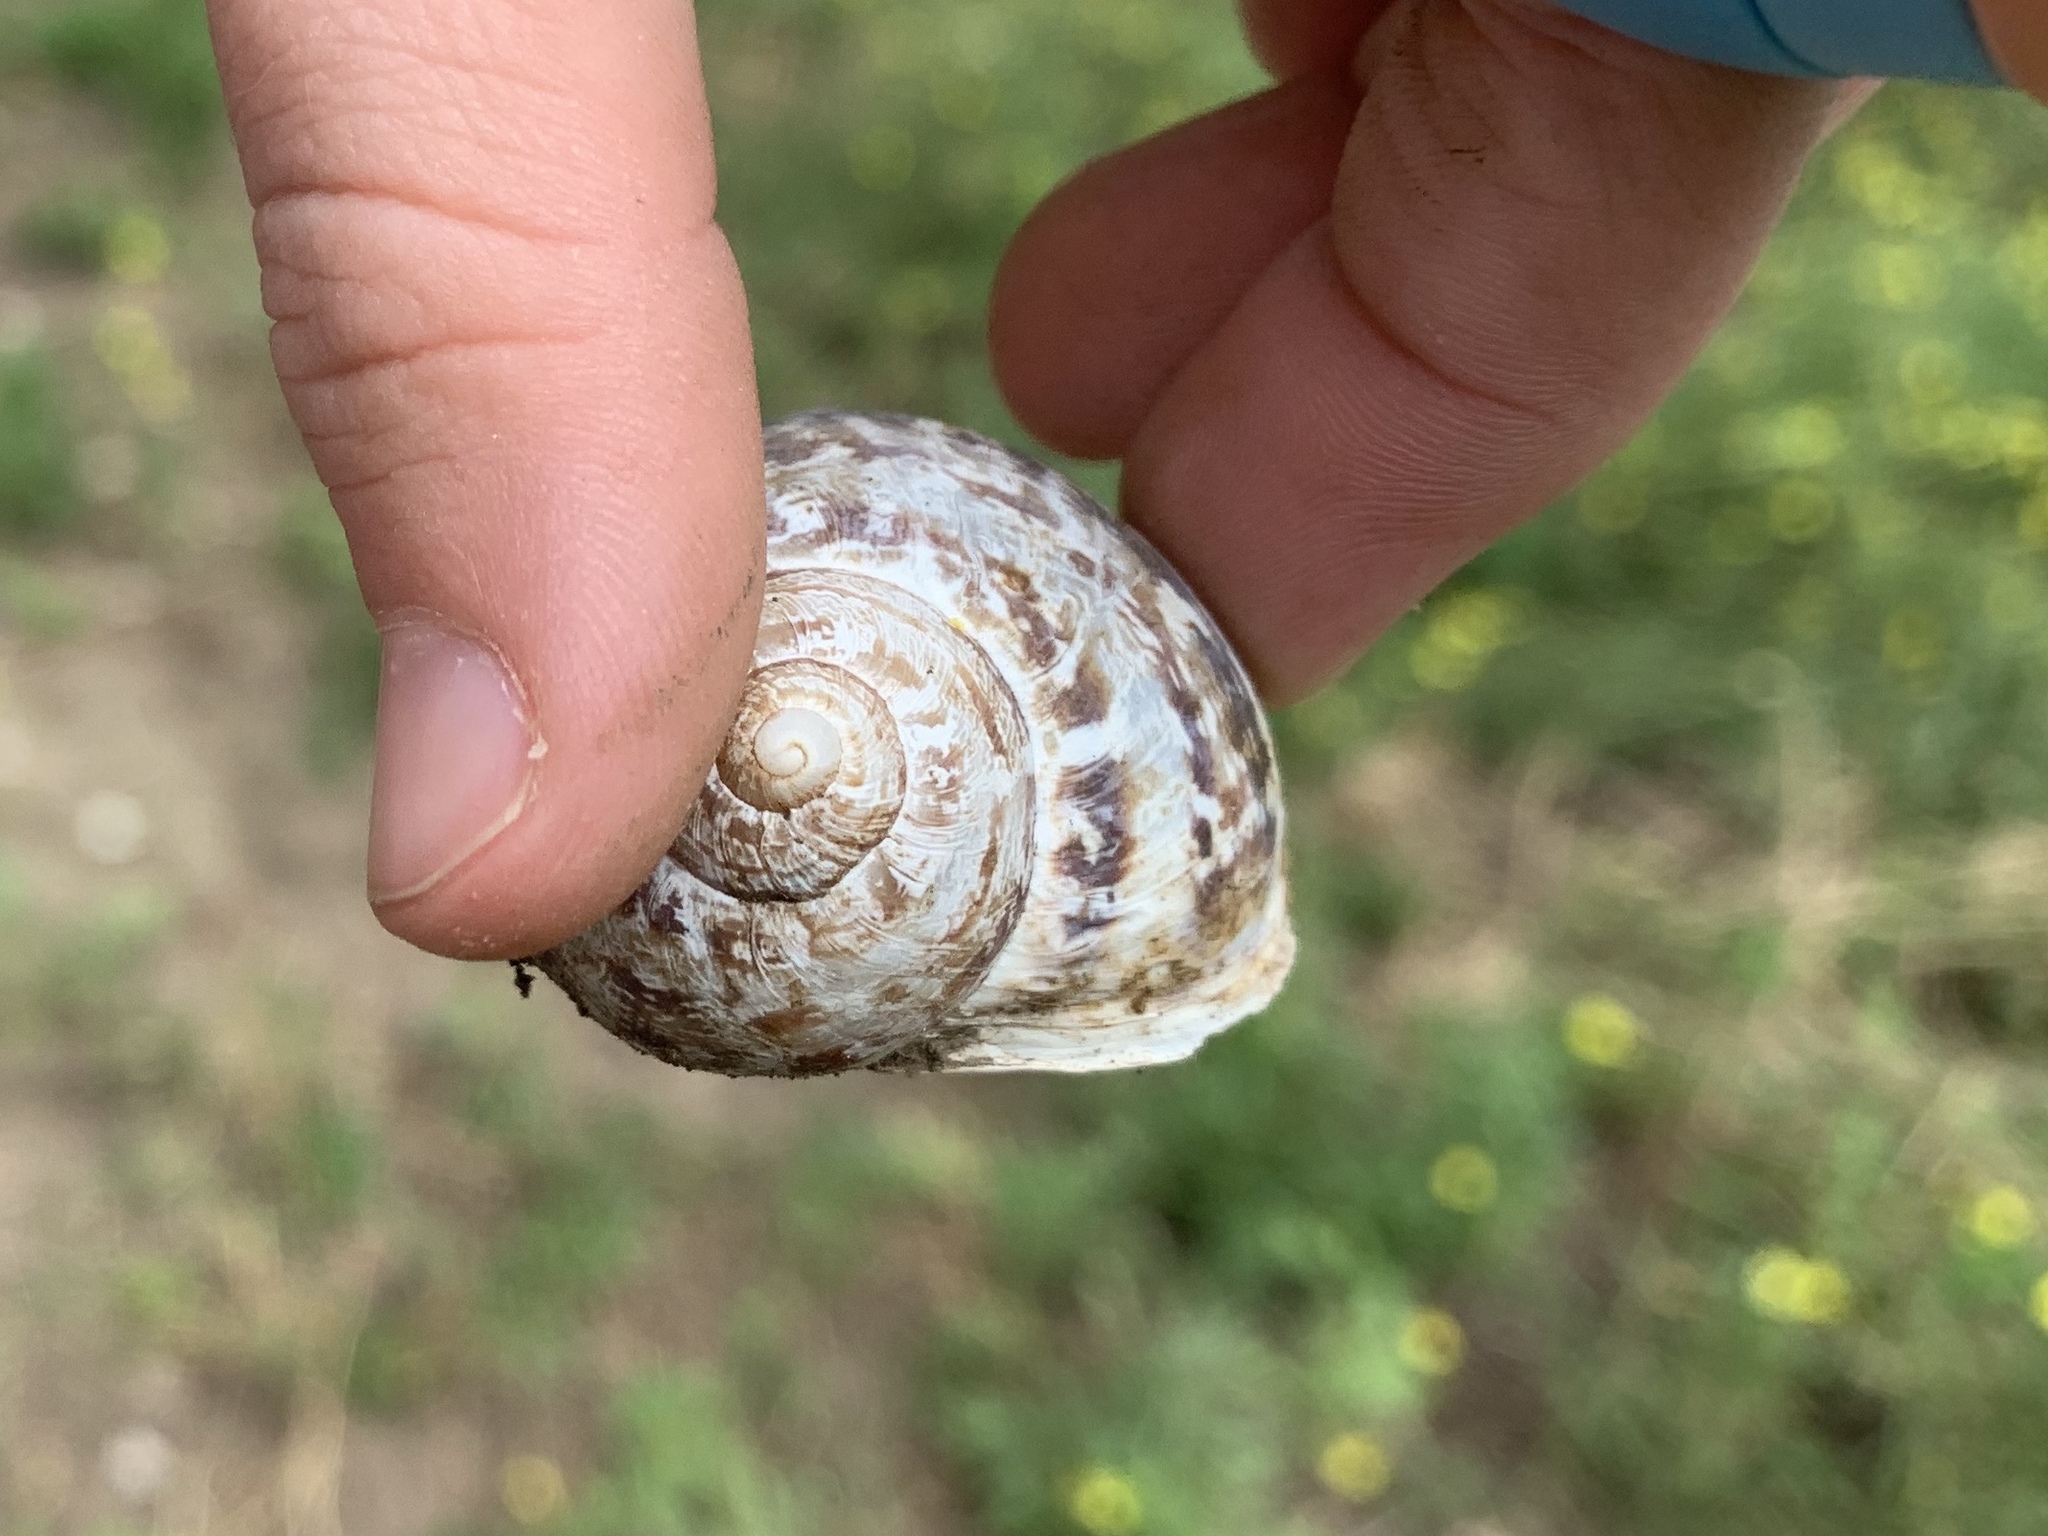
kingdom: Animalia
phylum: Mollusca
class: Gastropoda
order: Stylommatophora
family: Helicidae
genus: Cornu
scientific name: Cornu aspersum
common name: Brown garden snail
